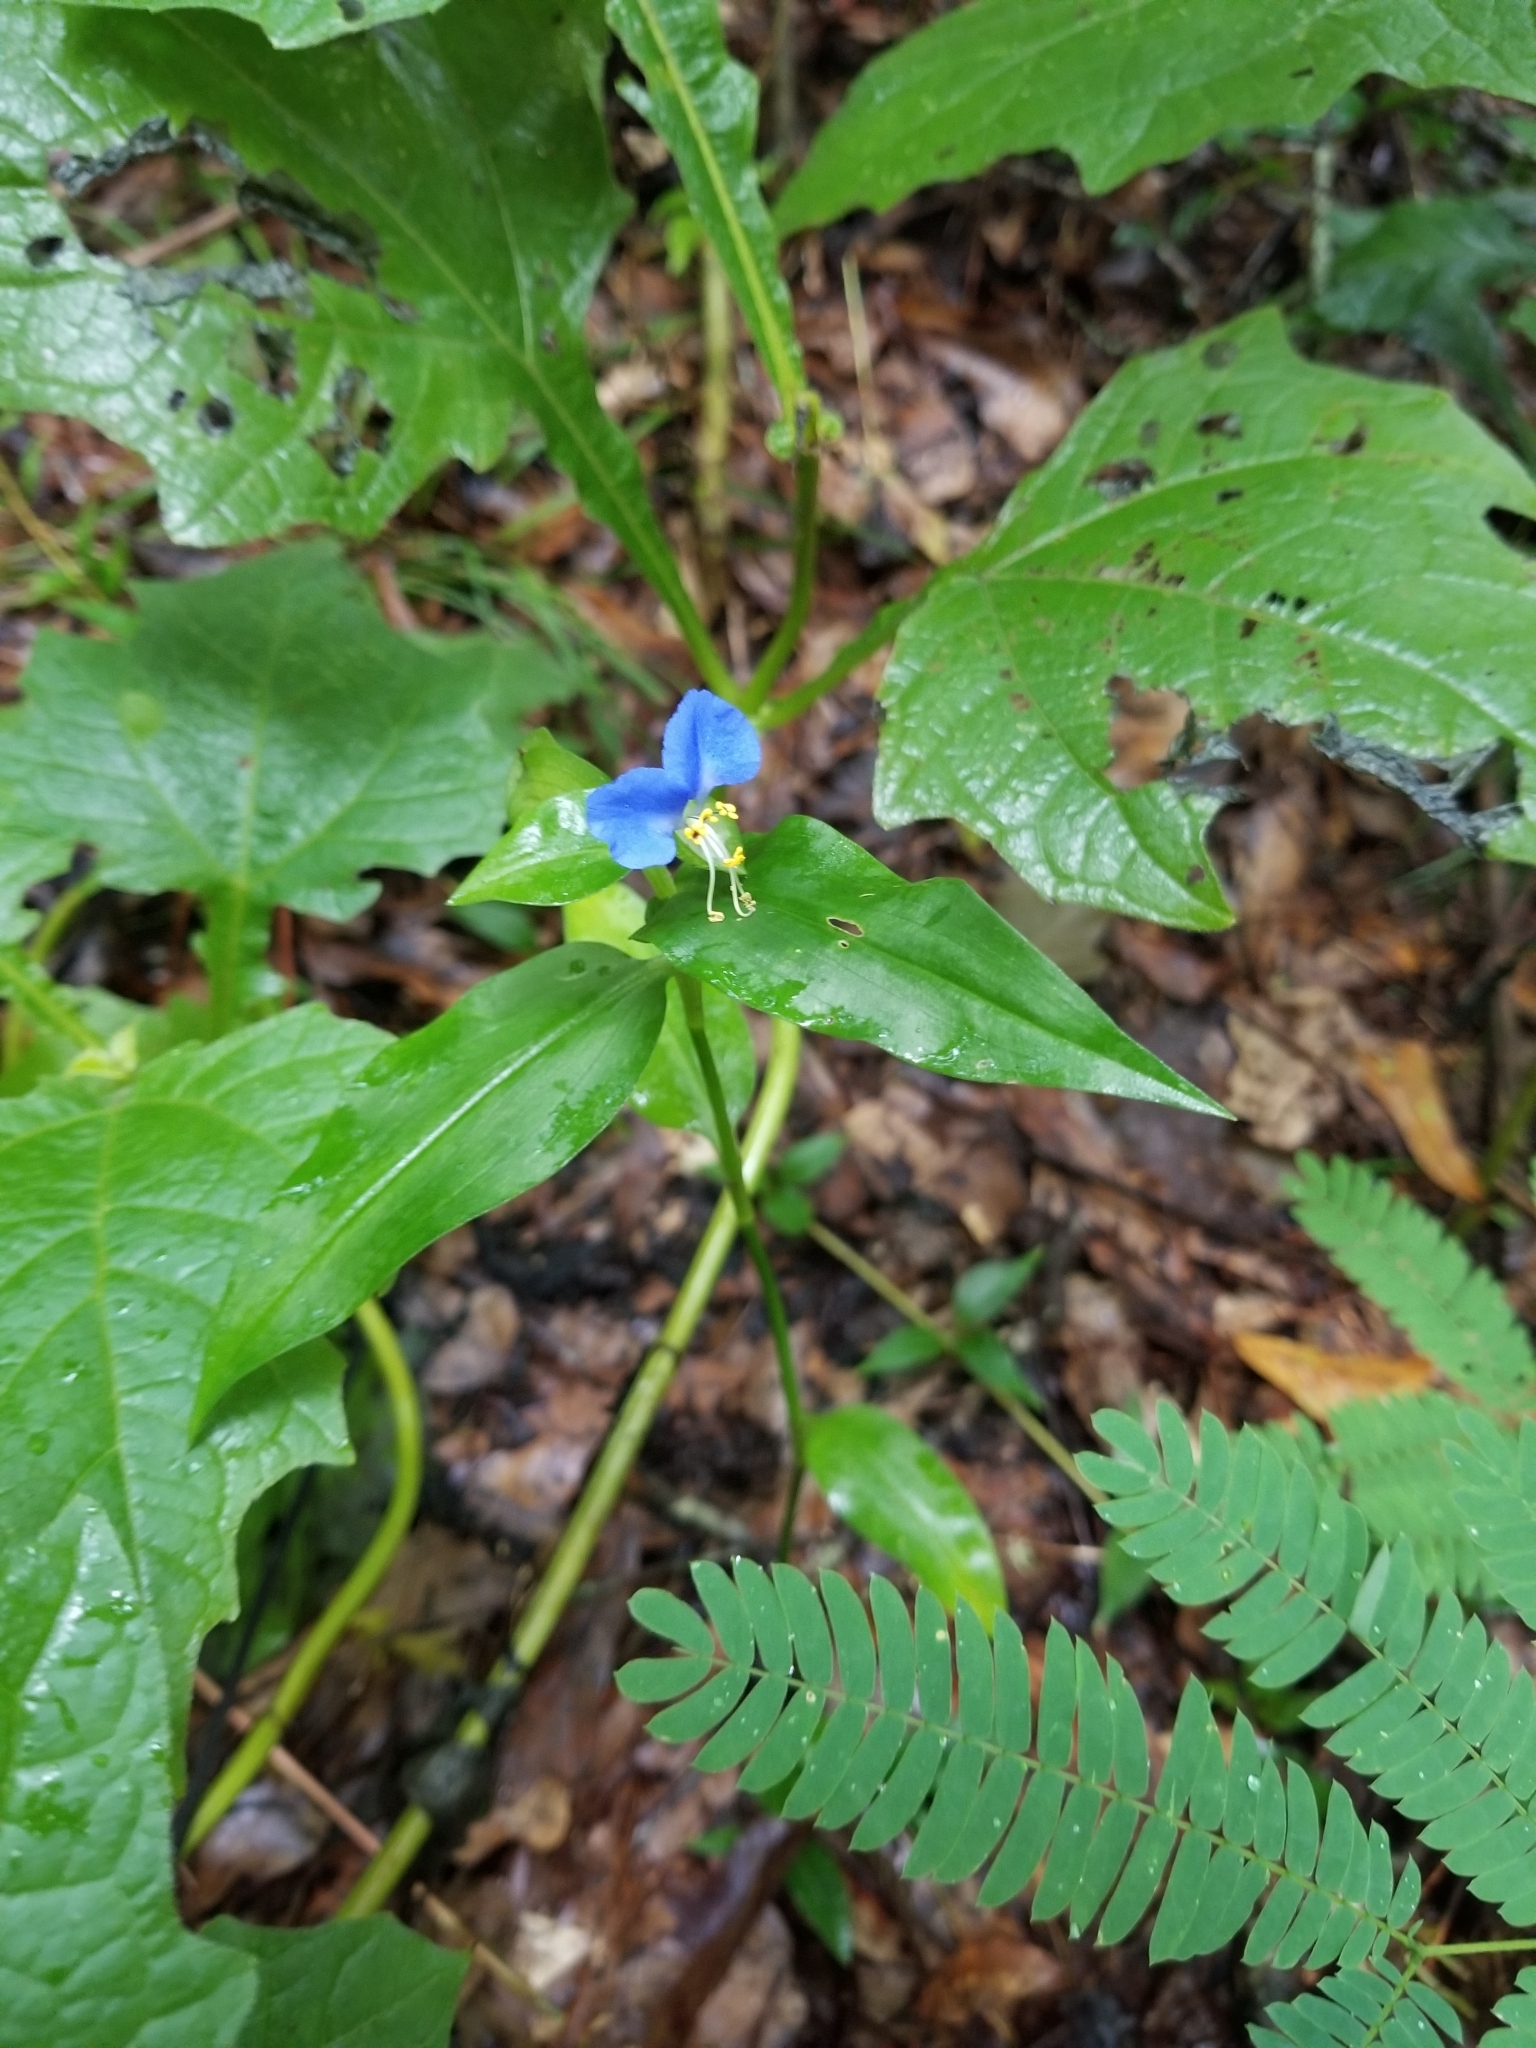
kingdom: Plantae
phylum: Tracheophyta
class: Liliopsida
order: Commelinales
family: Commelinaceae
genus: Commelina
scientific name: Commelina communis
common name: Asiatic dayflower
